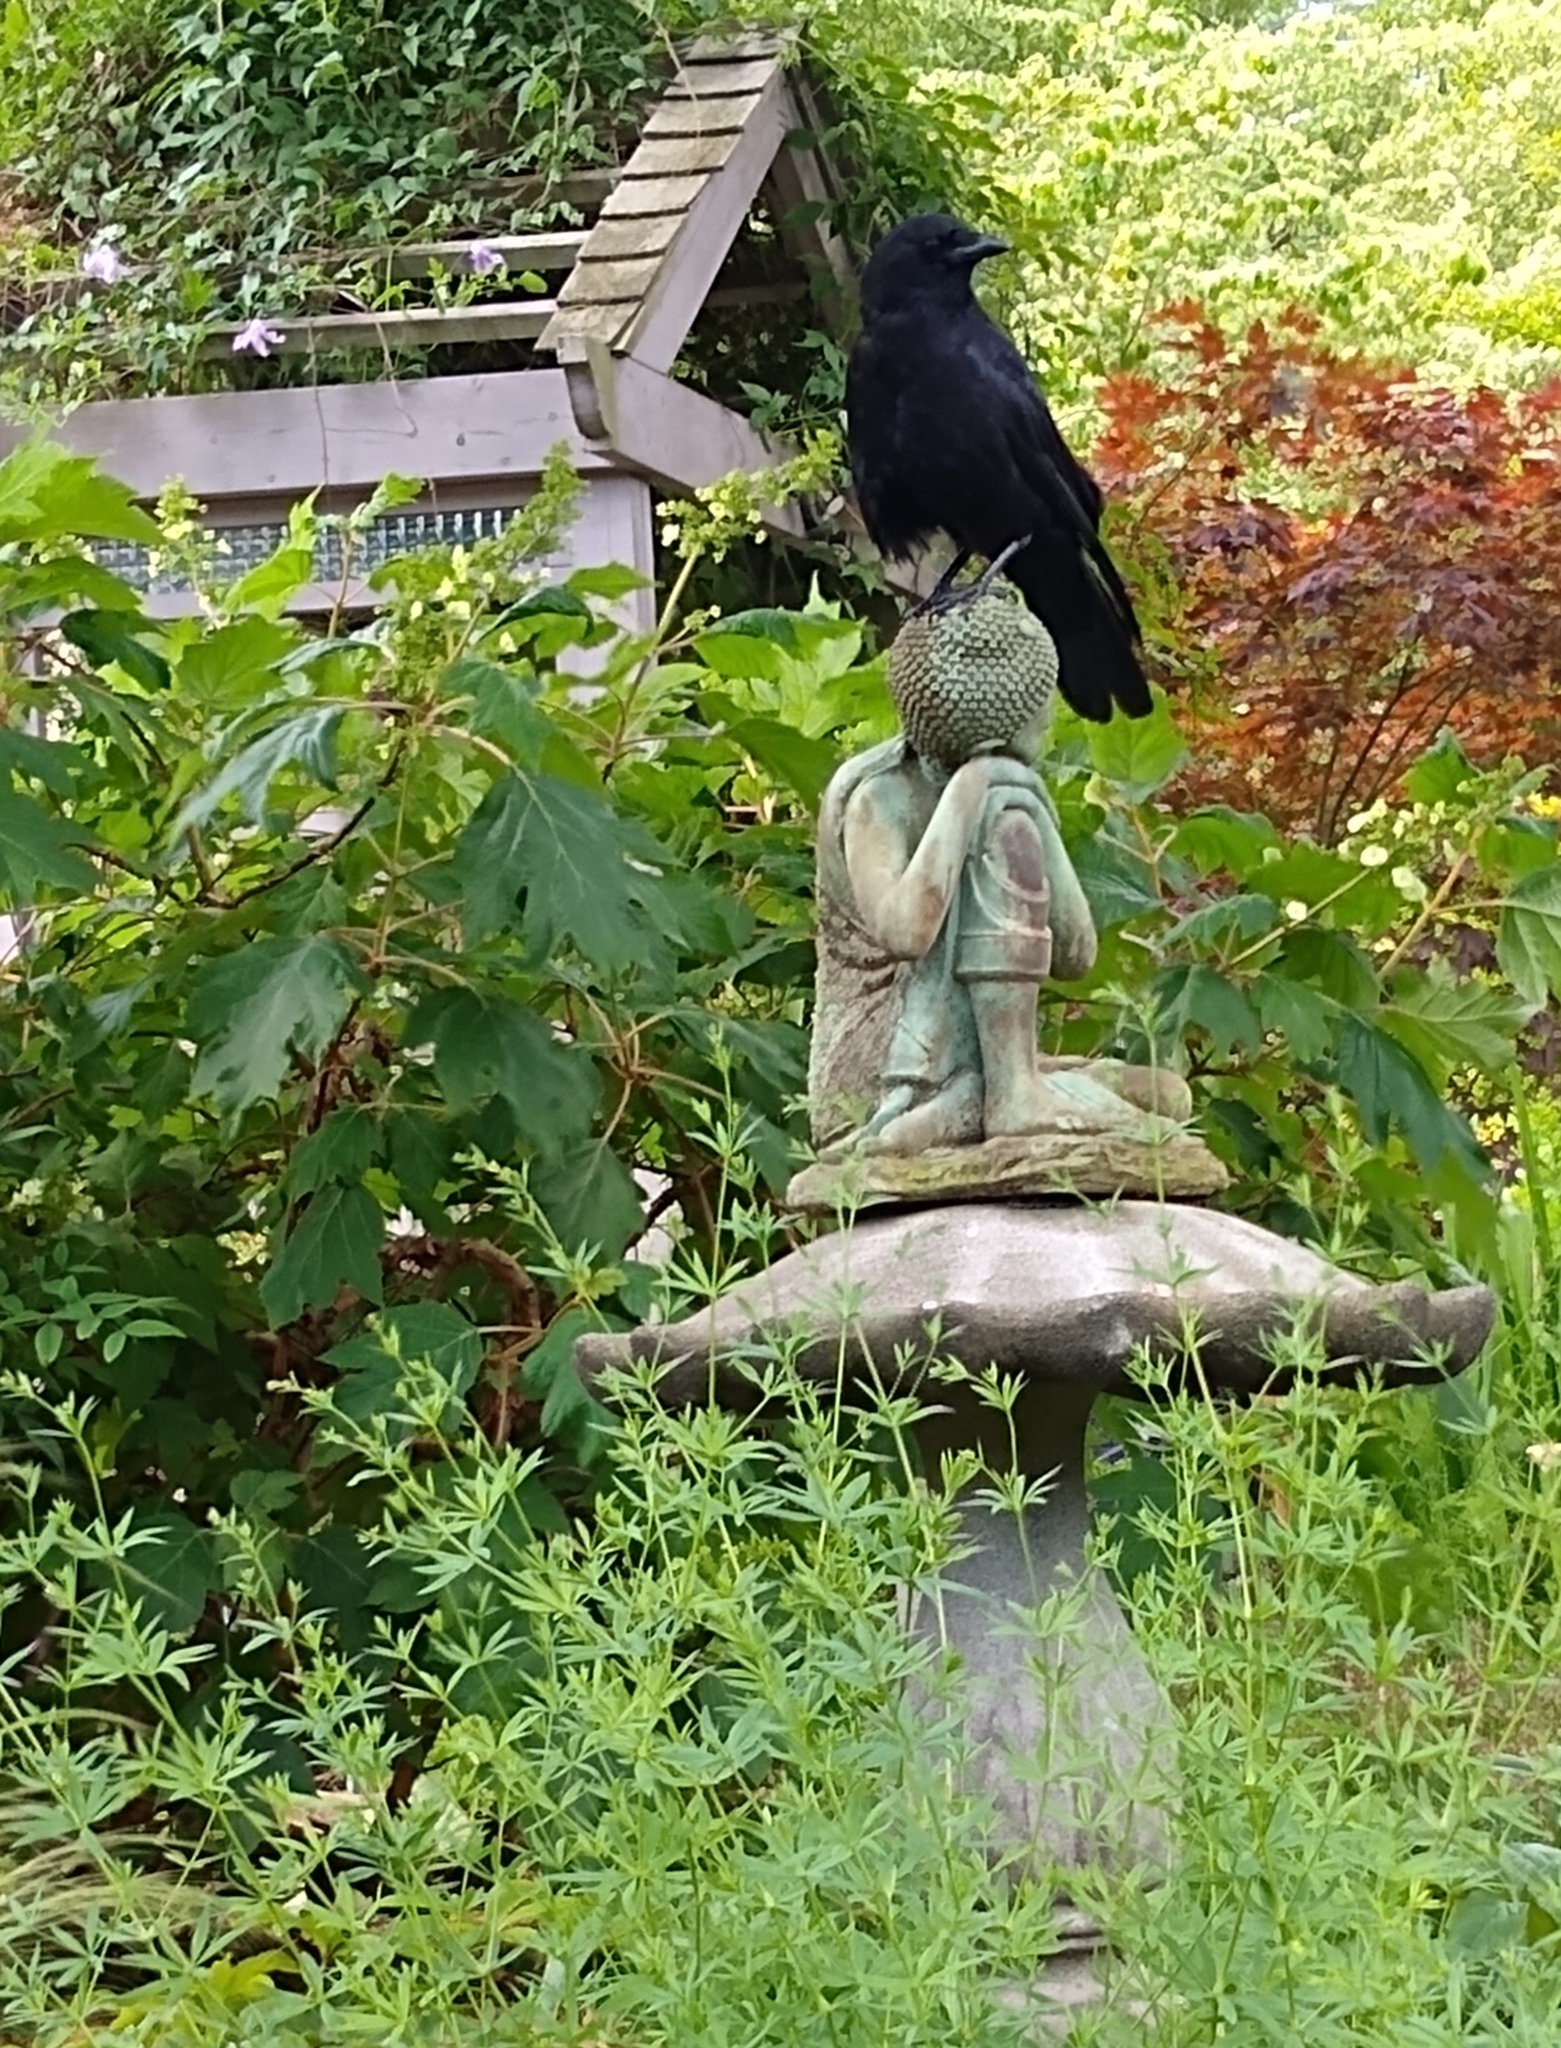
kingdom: Animalia
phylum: Chordata
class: Aves
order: Passeriformes
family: Corvidae
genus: Corvus
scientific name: Corvus brachyrhynchos
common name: American crow
